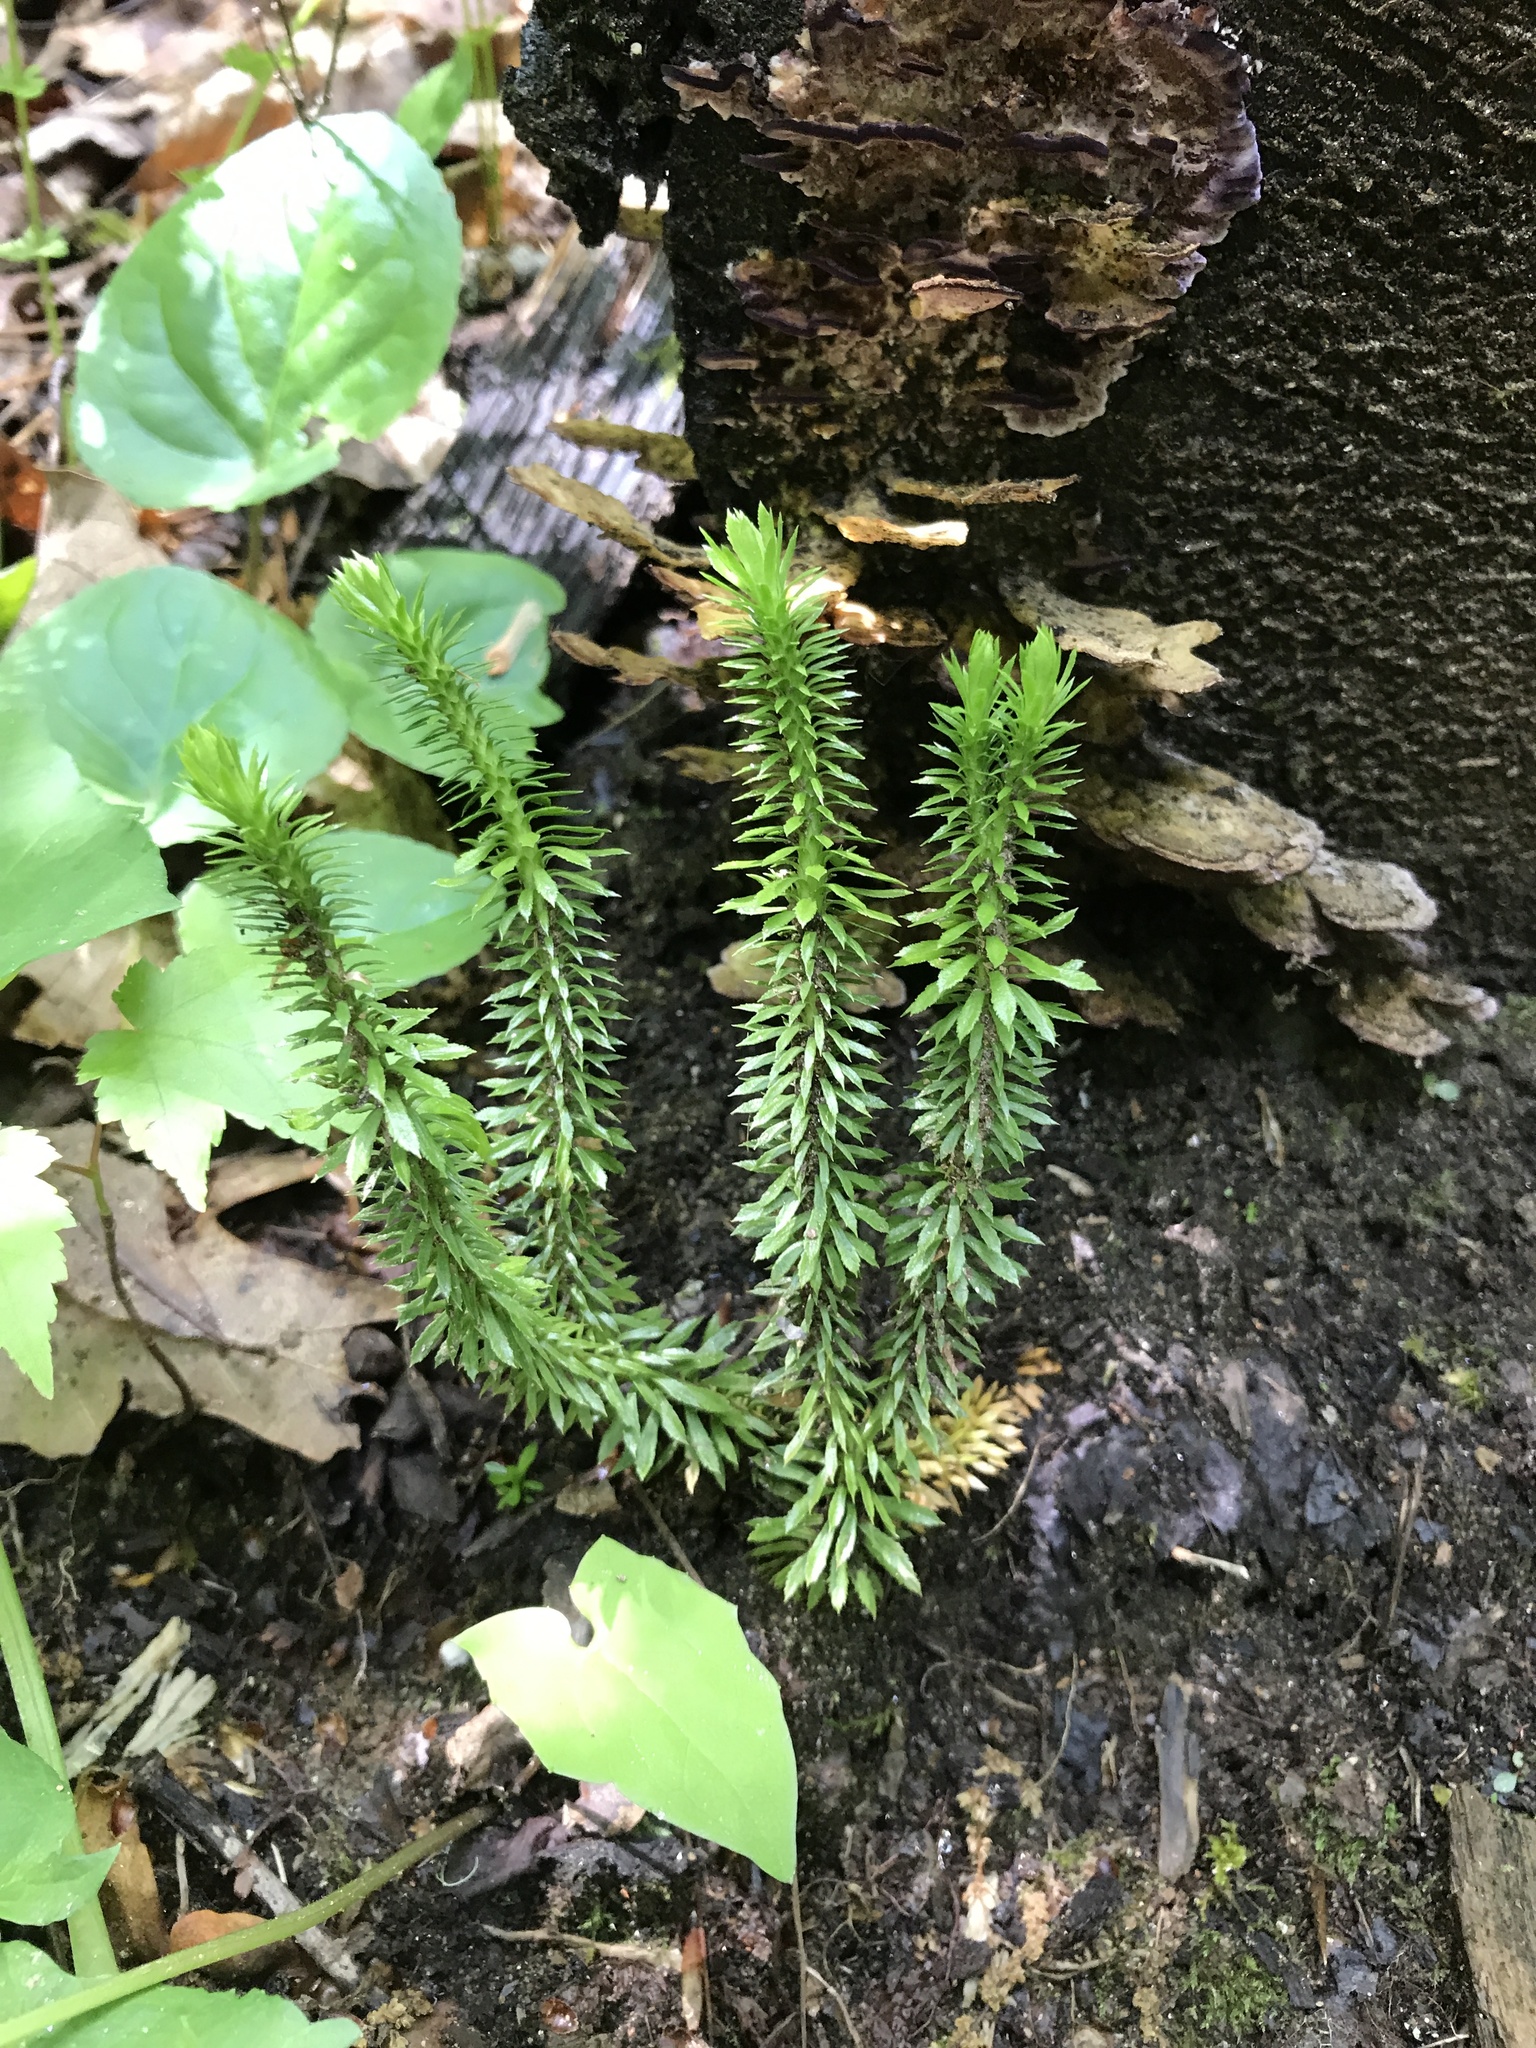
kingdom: Plantae
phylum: Tracheophyta
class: Lycopodiopsida
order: Lycopodiales
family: Lycopodiaceae
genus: Huperzia
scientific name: Huperzia lucidula
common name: Shining clubmoss
